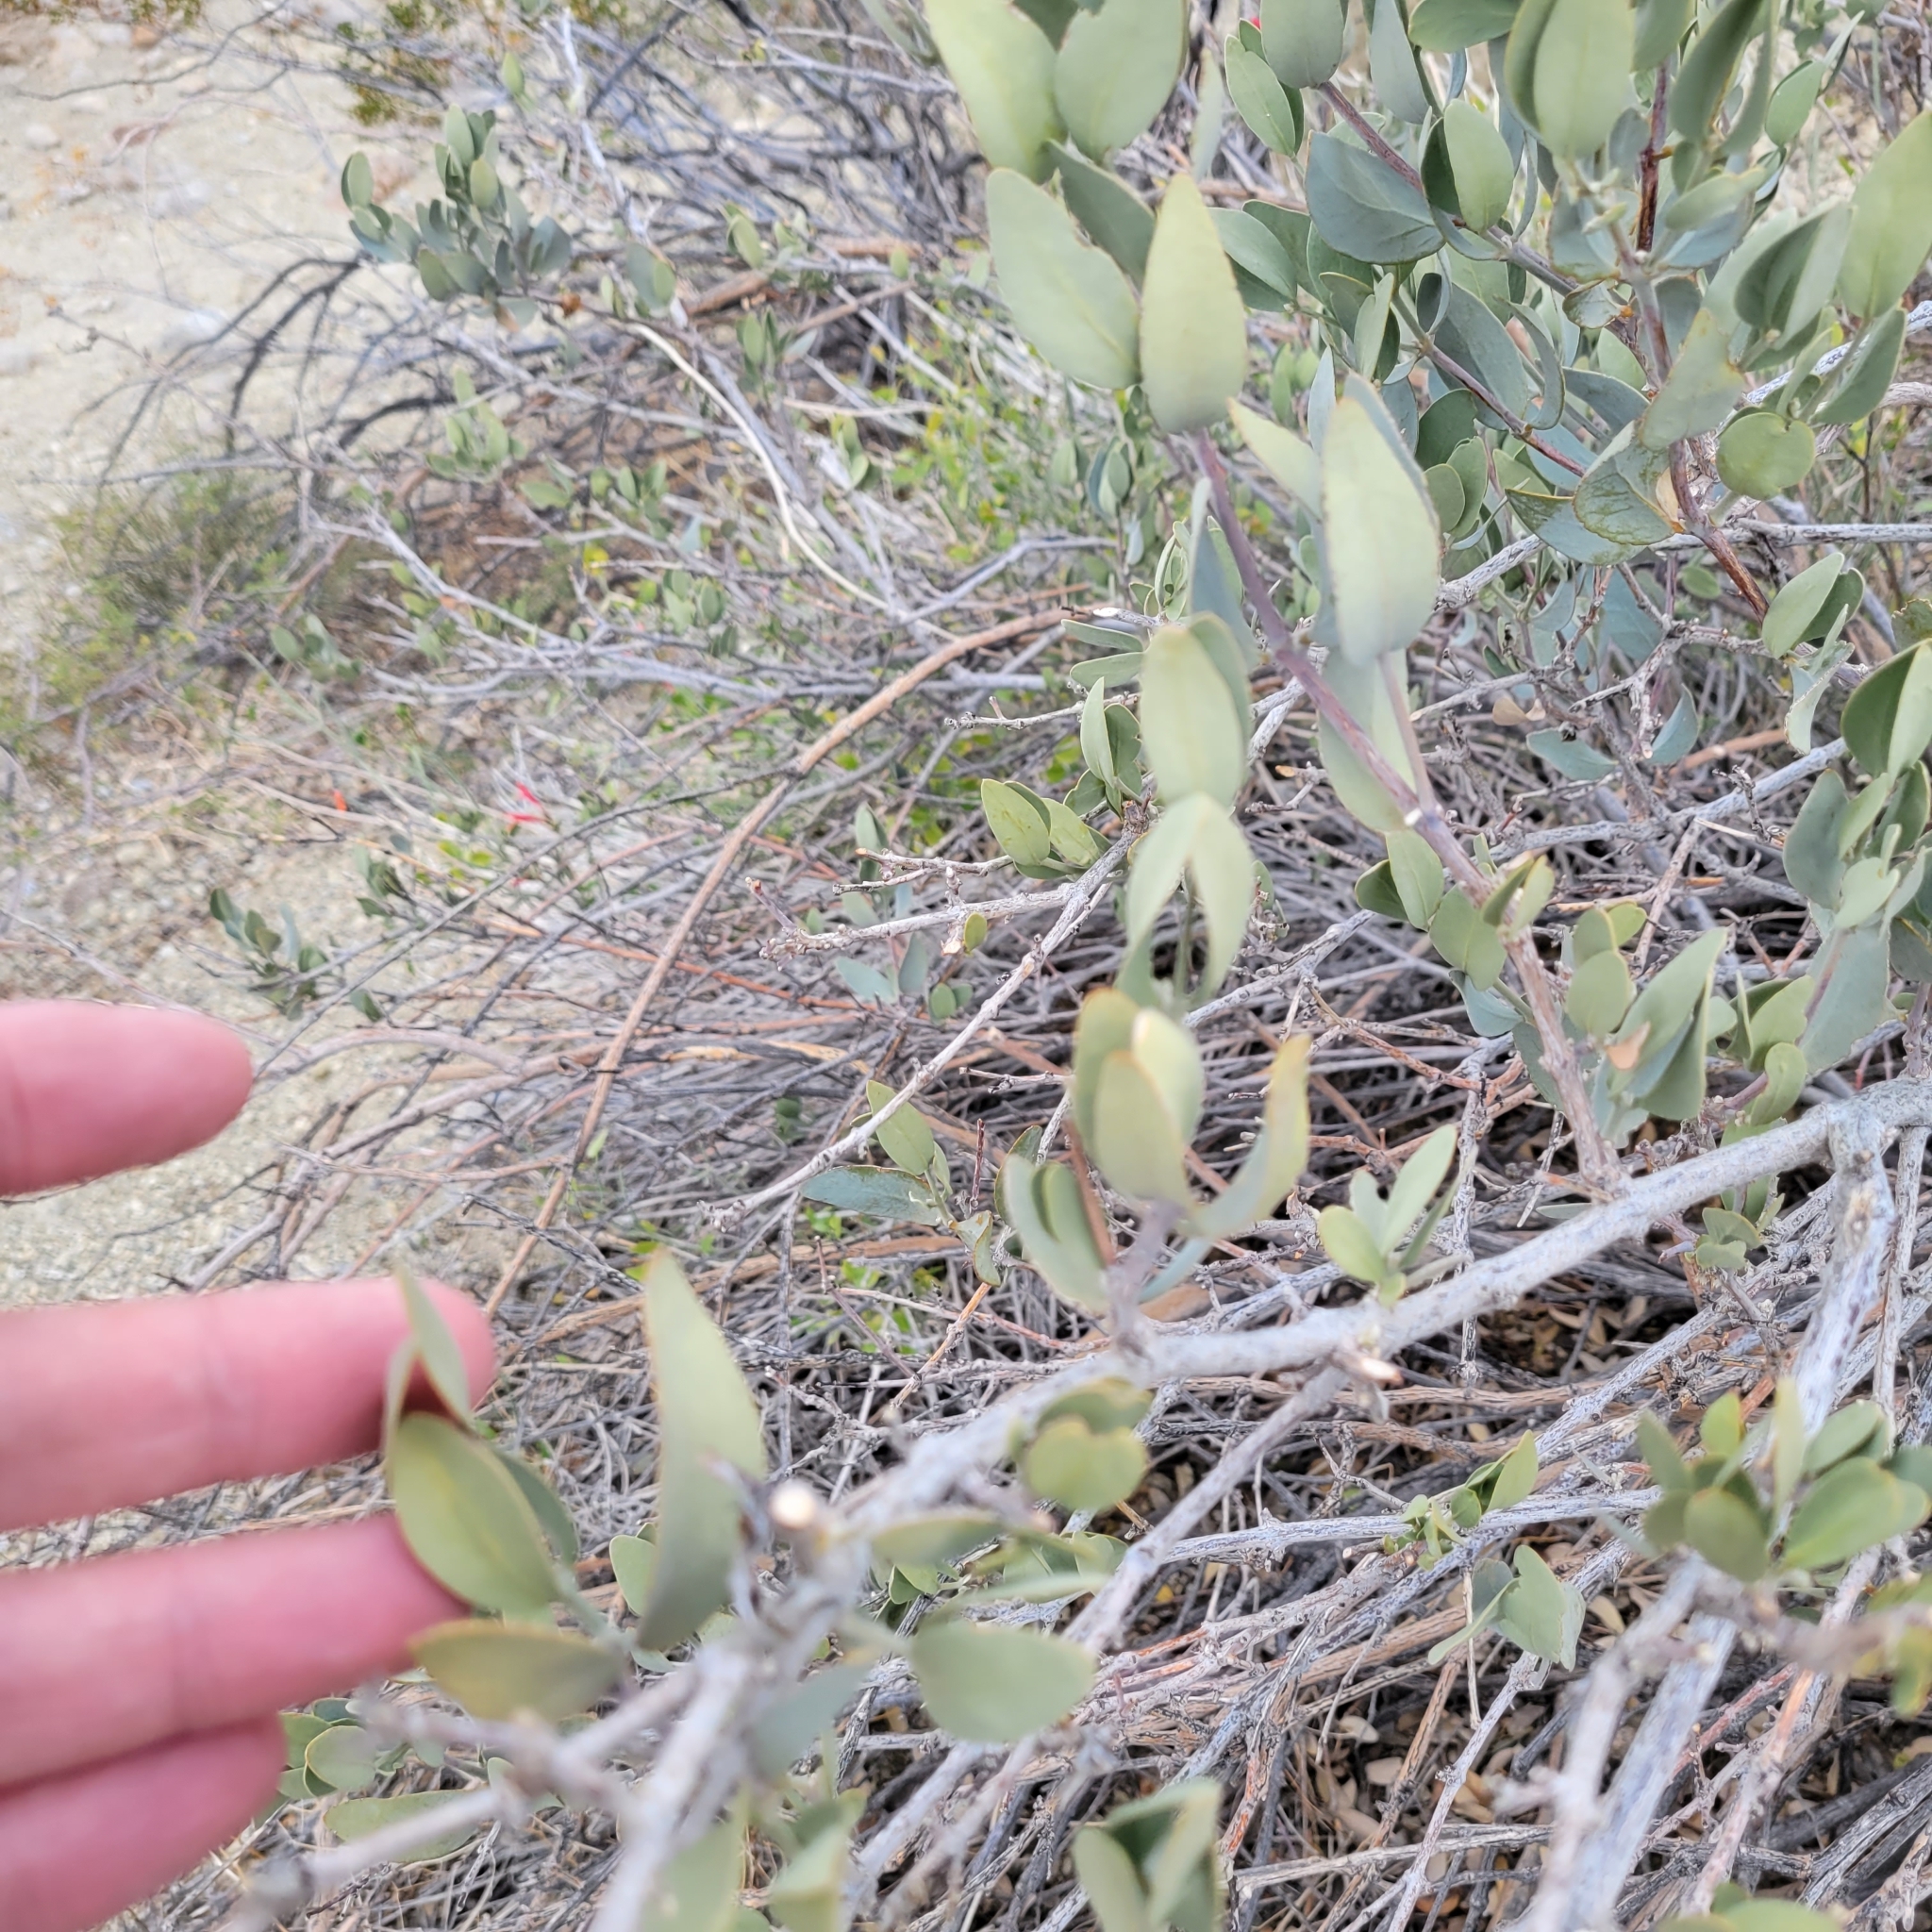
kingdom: Plantae
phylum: Tracheophyta
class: Magnoliopsida
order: Caryophyllales
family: Simmondsiaceae
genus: Simmondsia
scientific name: Simmondsia chinensis
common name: Jojoba
